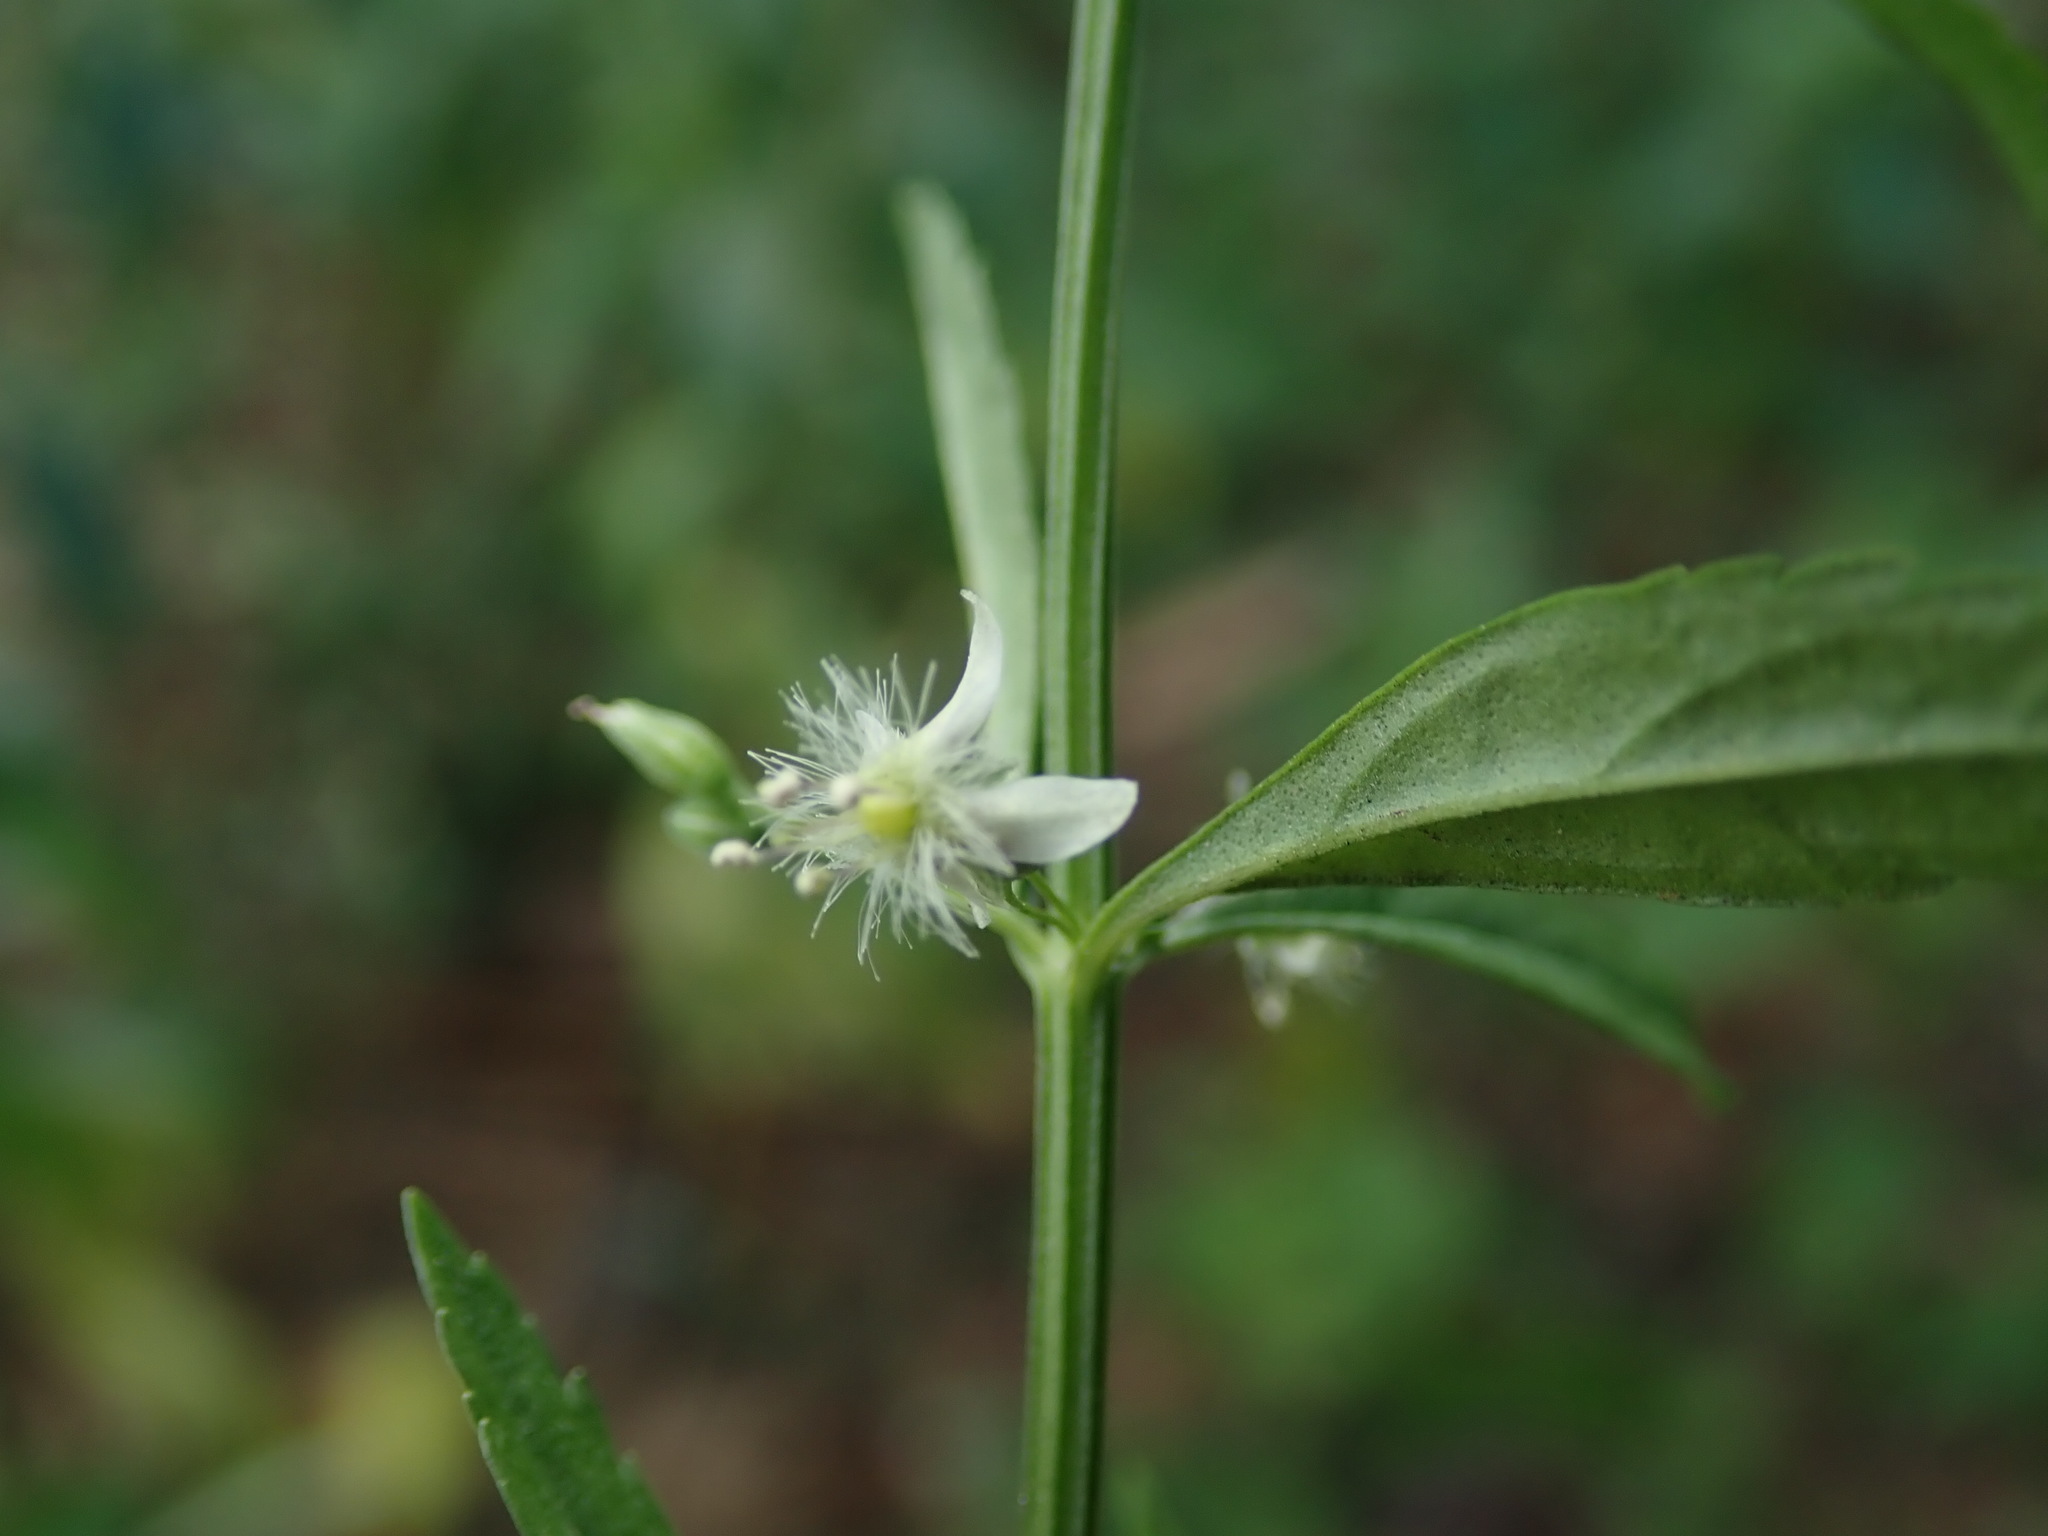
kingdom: Plantae
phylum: Tracheophyta
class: Magnoliopsida
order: Lamiales
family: Plantaginaceae
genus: Scoparia
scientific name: Scoparia dulcis
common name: Scoparia-weed
